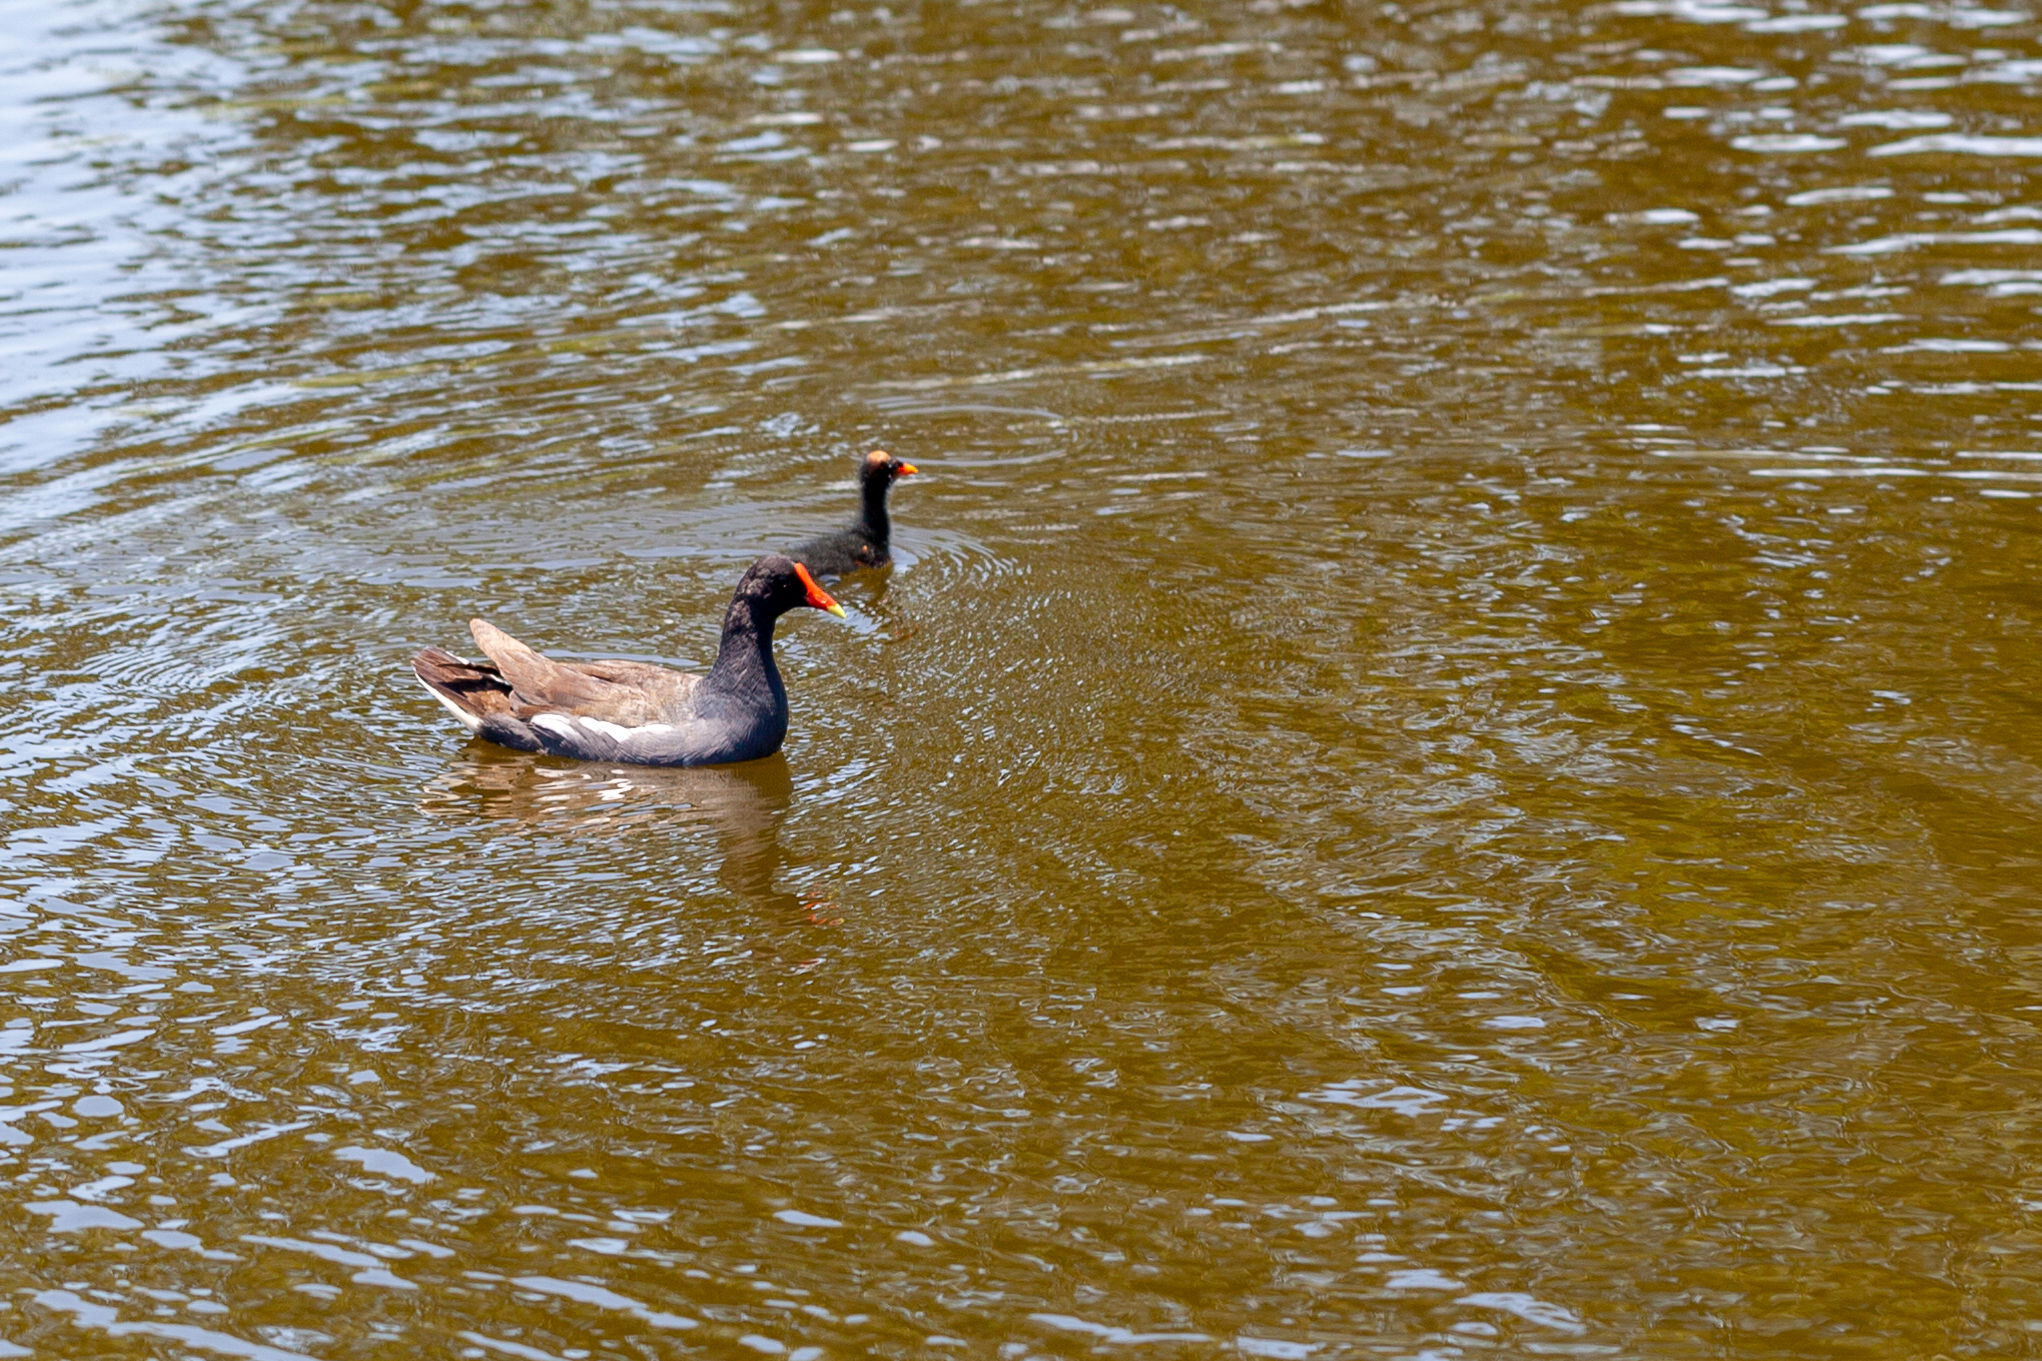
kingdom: Animalia
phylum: Chordata
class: Aves
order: Gruiformes
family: Rallidae
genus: Gallinula
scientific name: Gallinula chloropus
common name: Common moorhen
